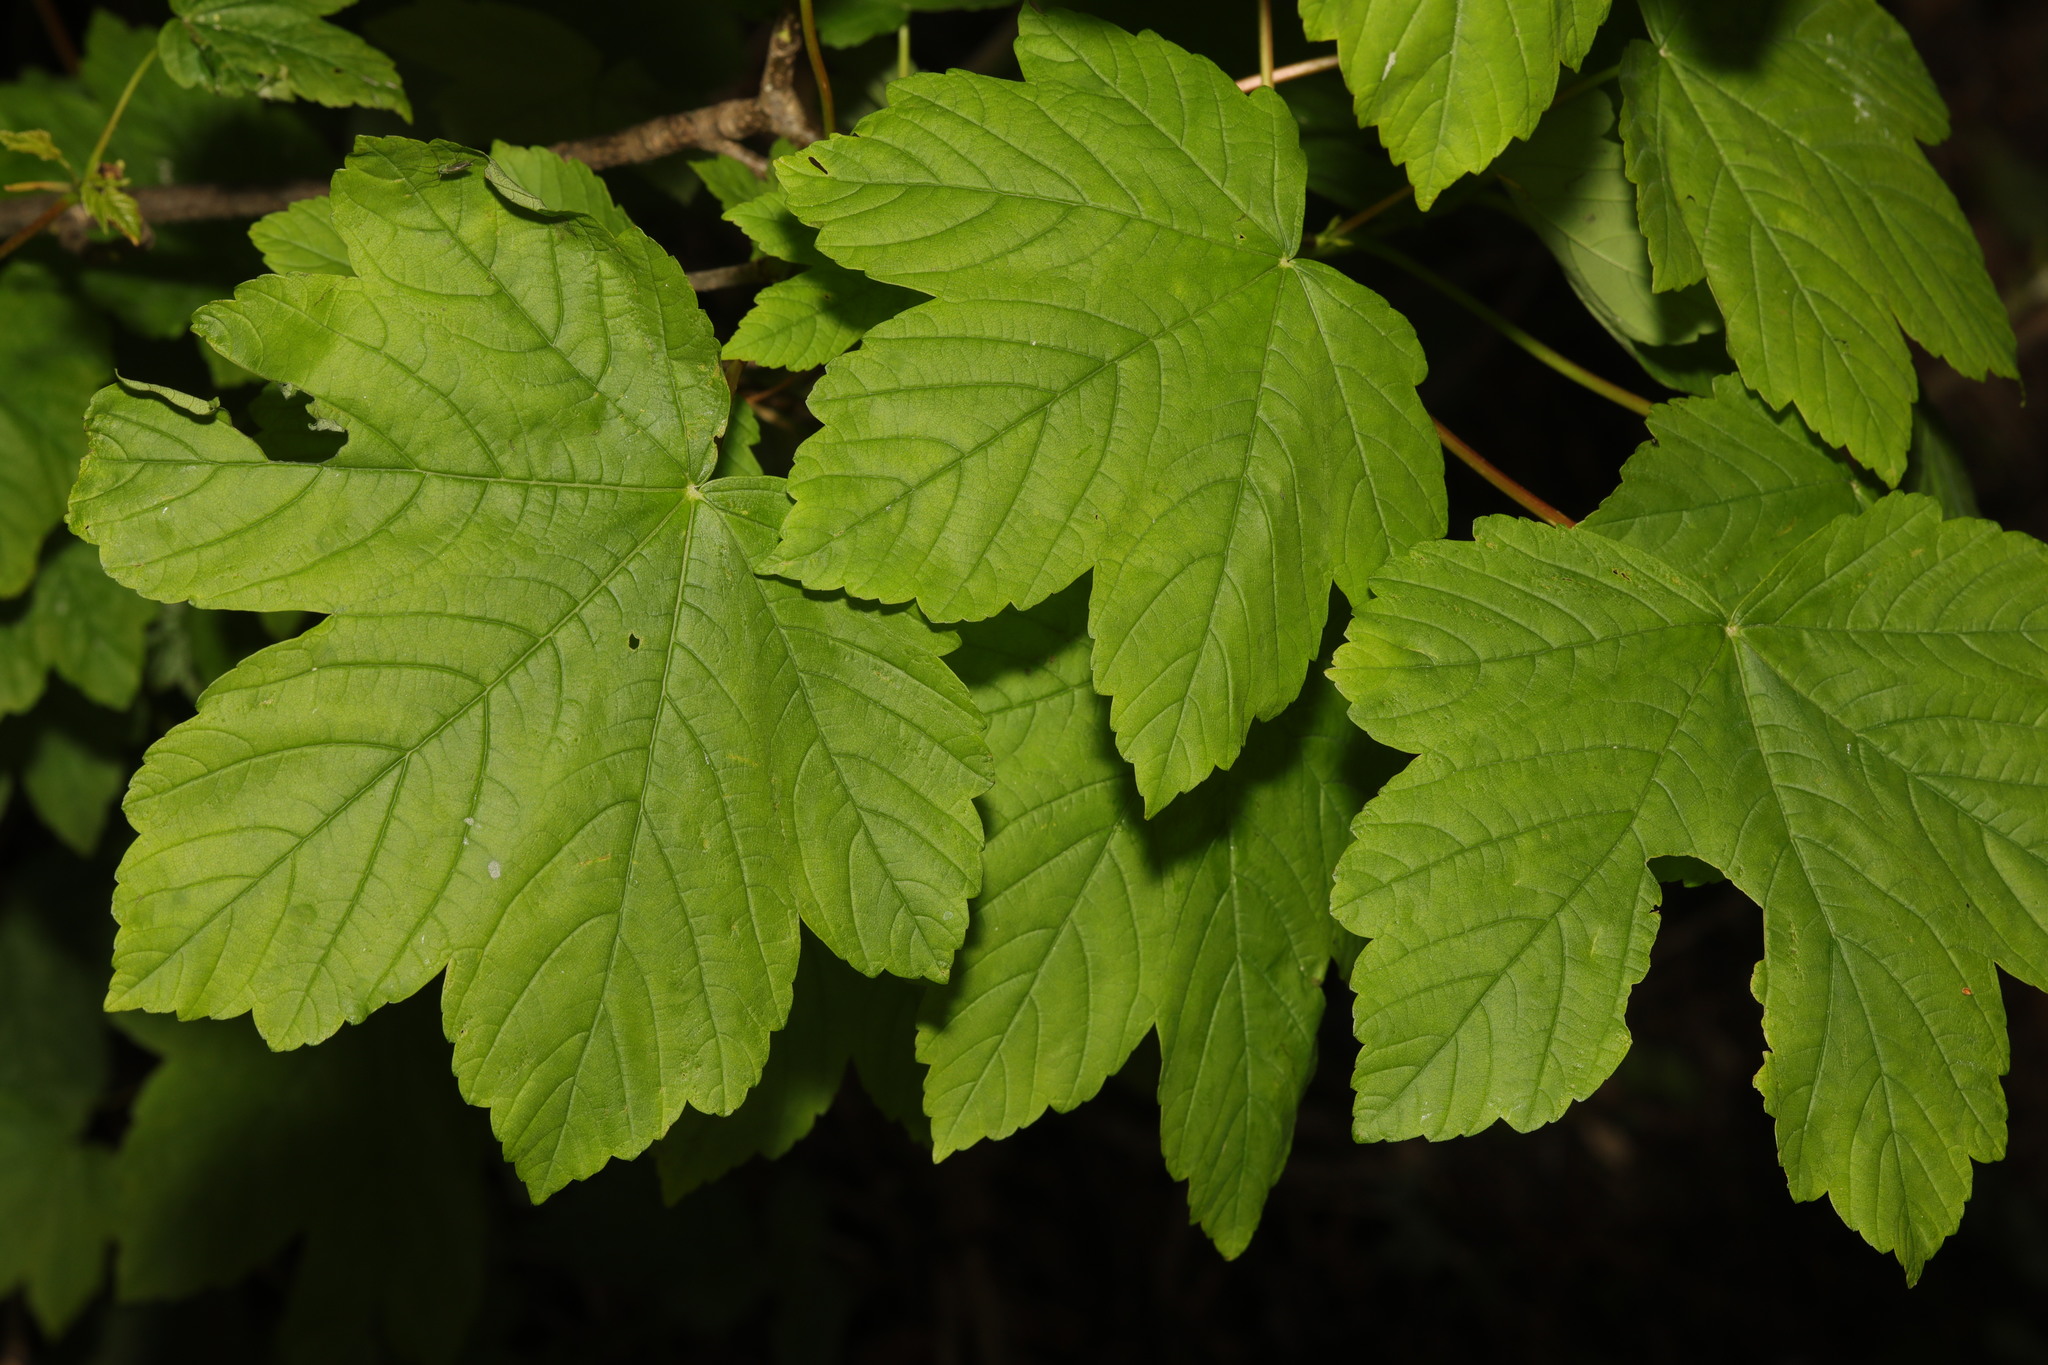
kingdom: Plantae
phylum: Tracheophyta
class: Magnoliopsida
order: Sapindales
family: Sapindaceae
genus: Acer
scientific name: Acer pseudoplatanus
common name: Sycamore
